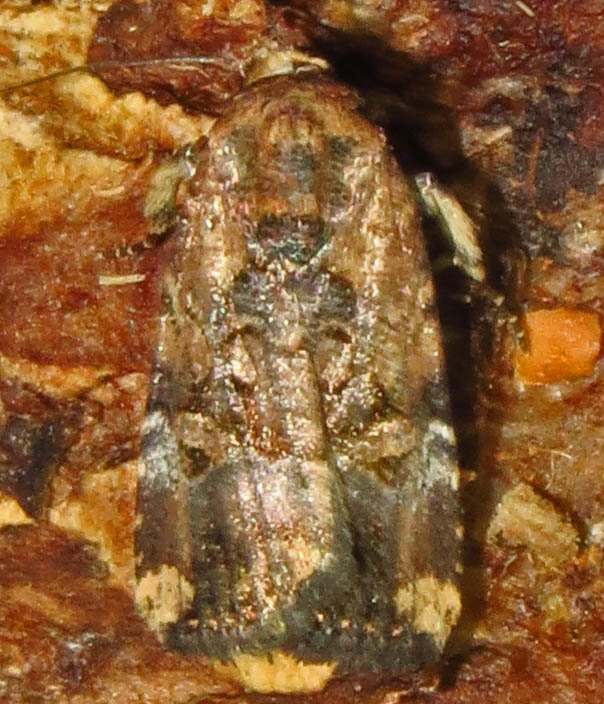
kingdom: Animalia
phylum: Arthropoda
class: Insecta
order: Lepidoptera
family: Noctuidae
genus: Elaphria
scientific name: Elaphria chalcedonia
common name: Chalcedony midget
